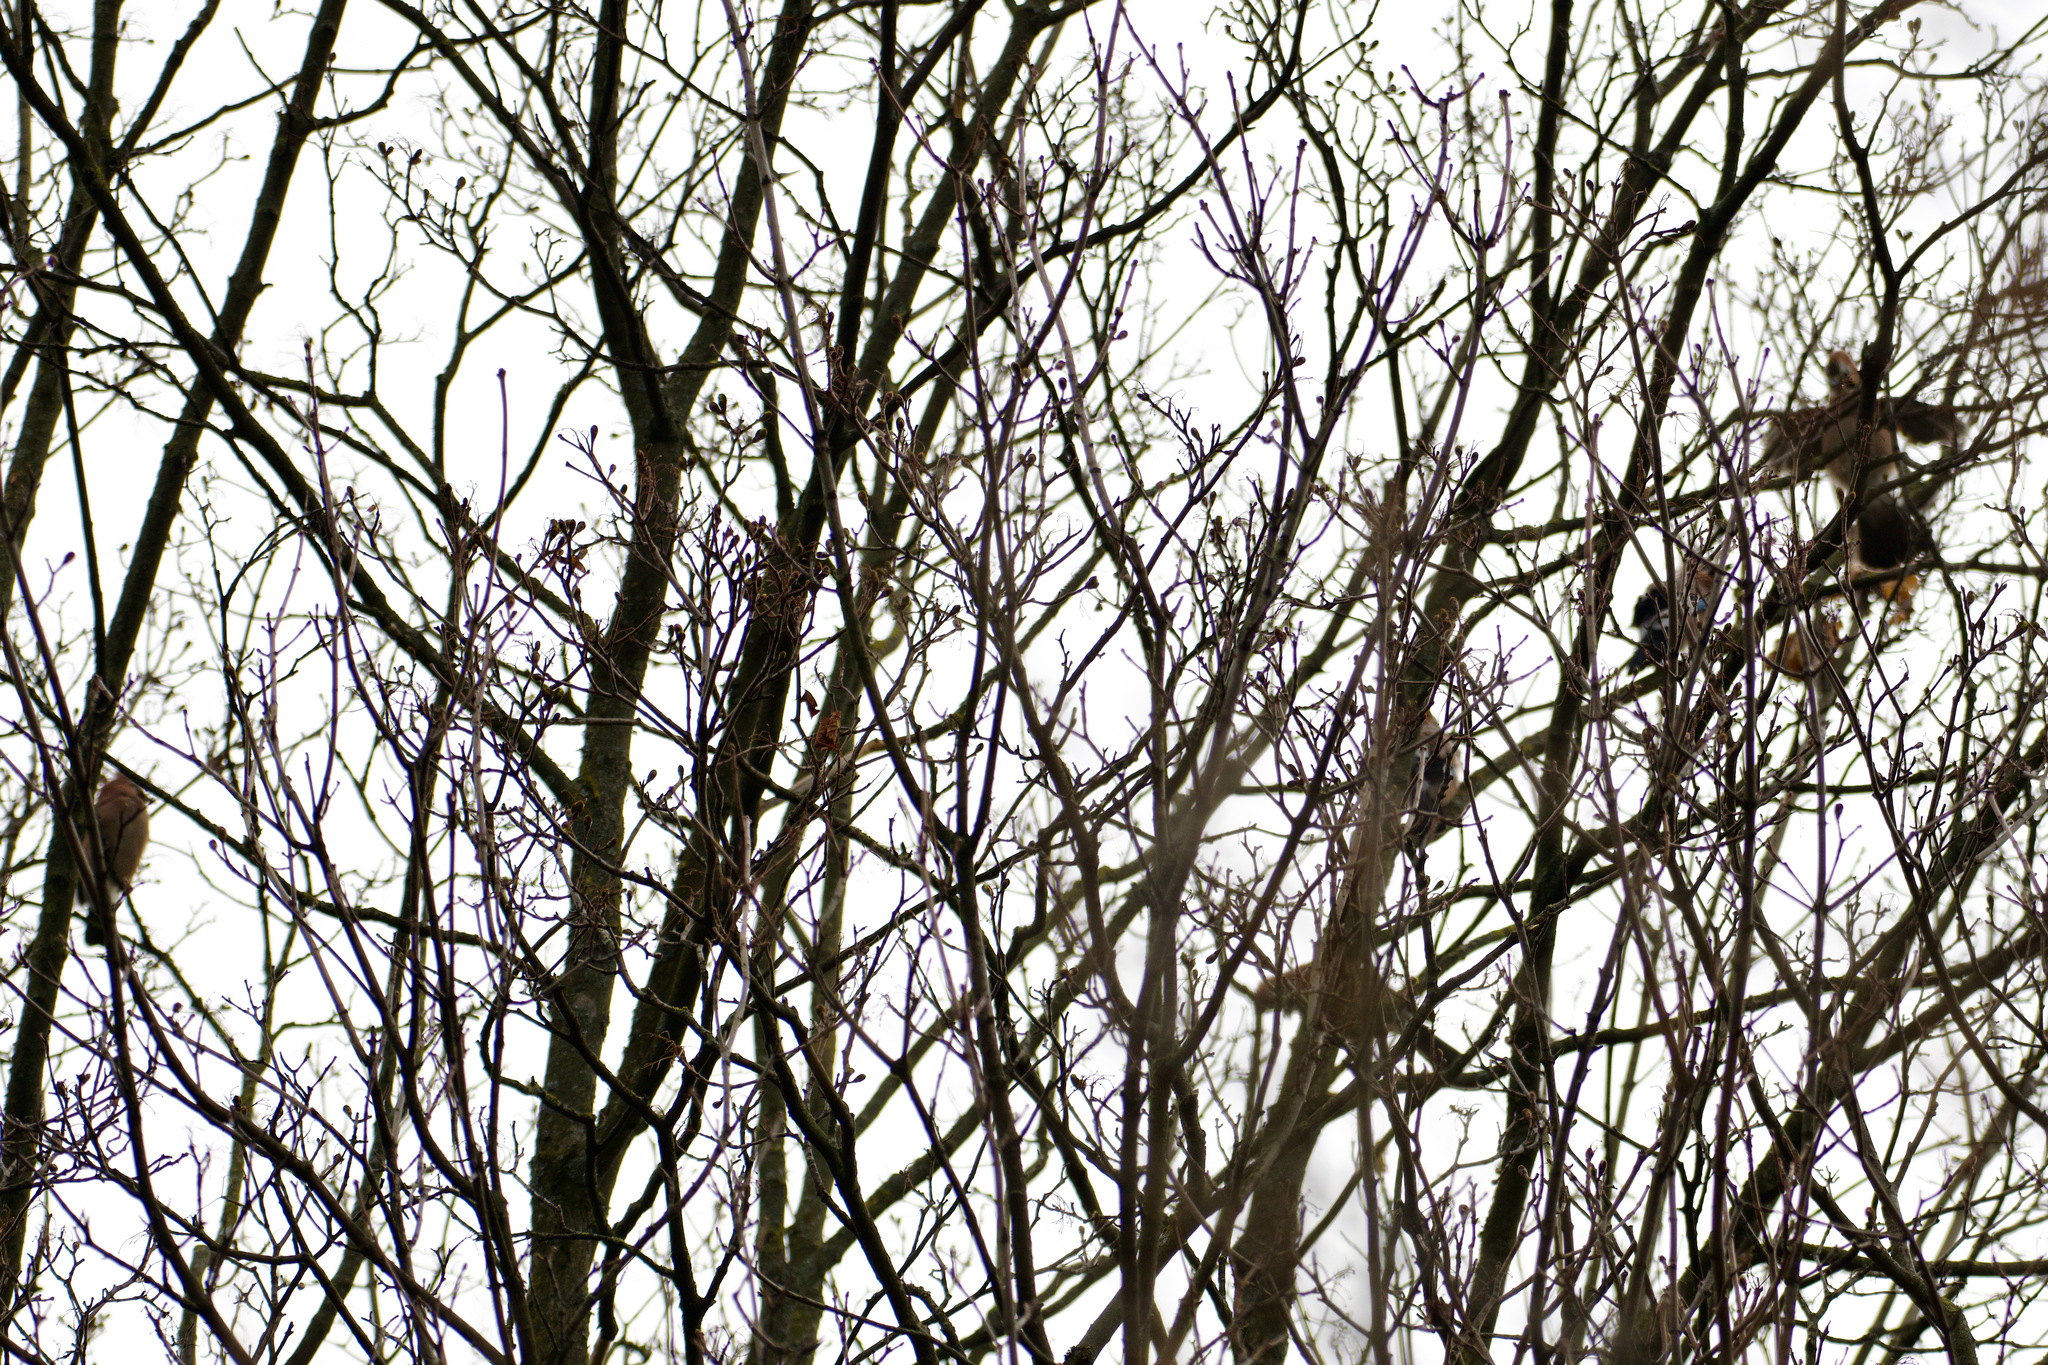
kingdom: Animalia
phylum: Chordata
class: Aves
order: Passeriformes
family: Corvidae
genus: Garrulus
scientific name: Garrulus glandarius
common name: Eurasian jay
